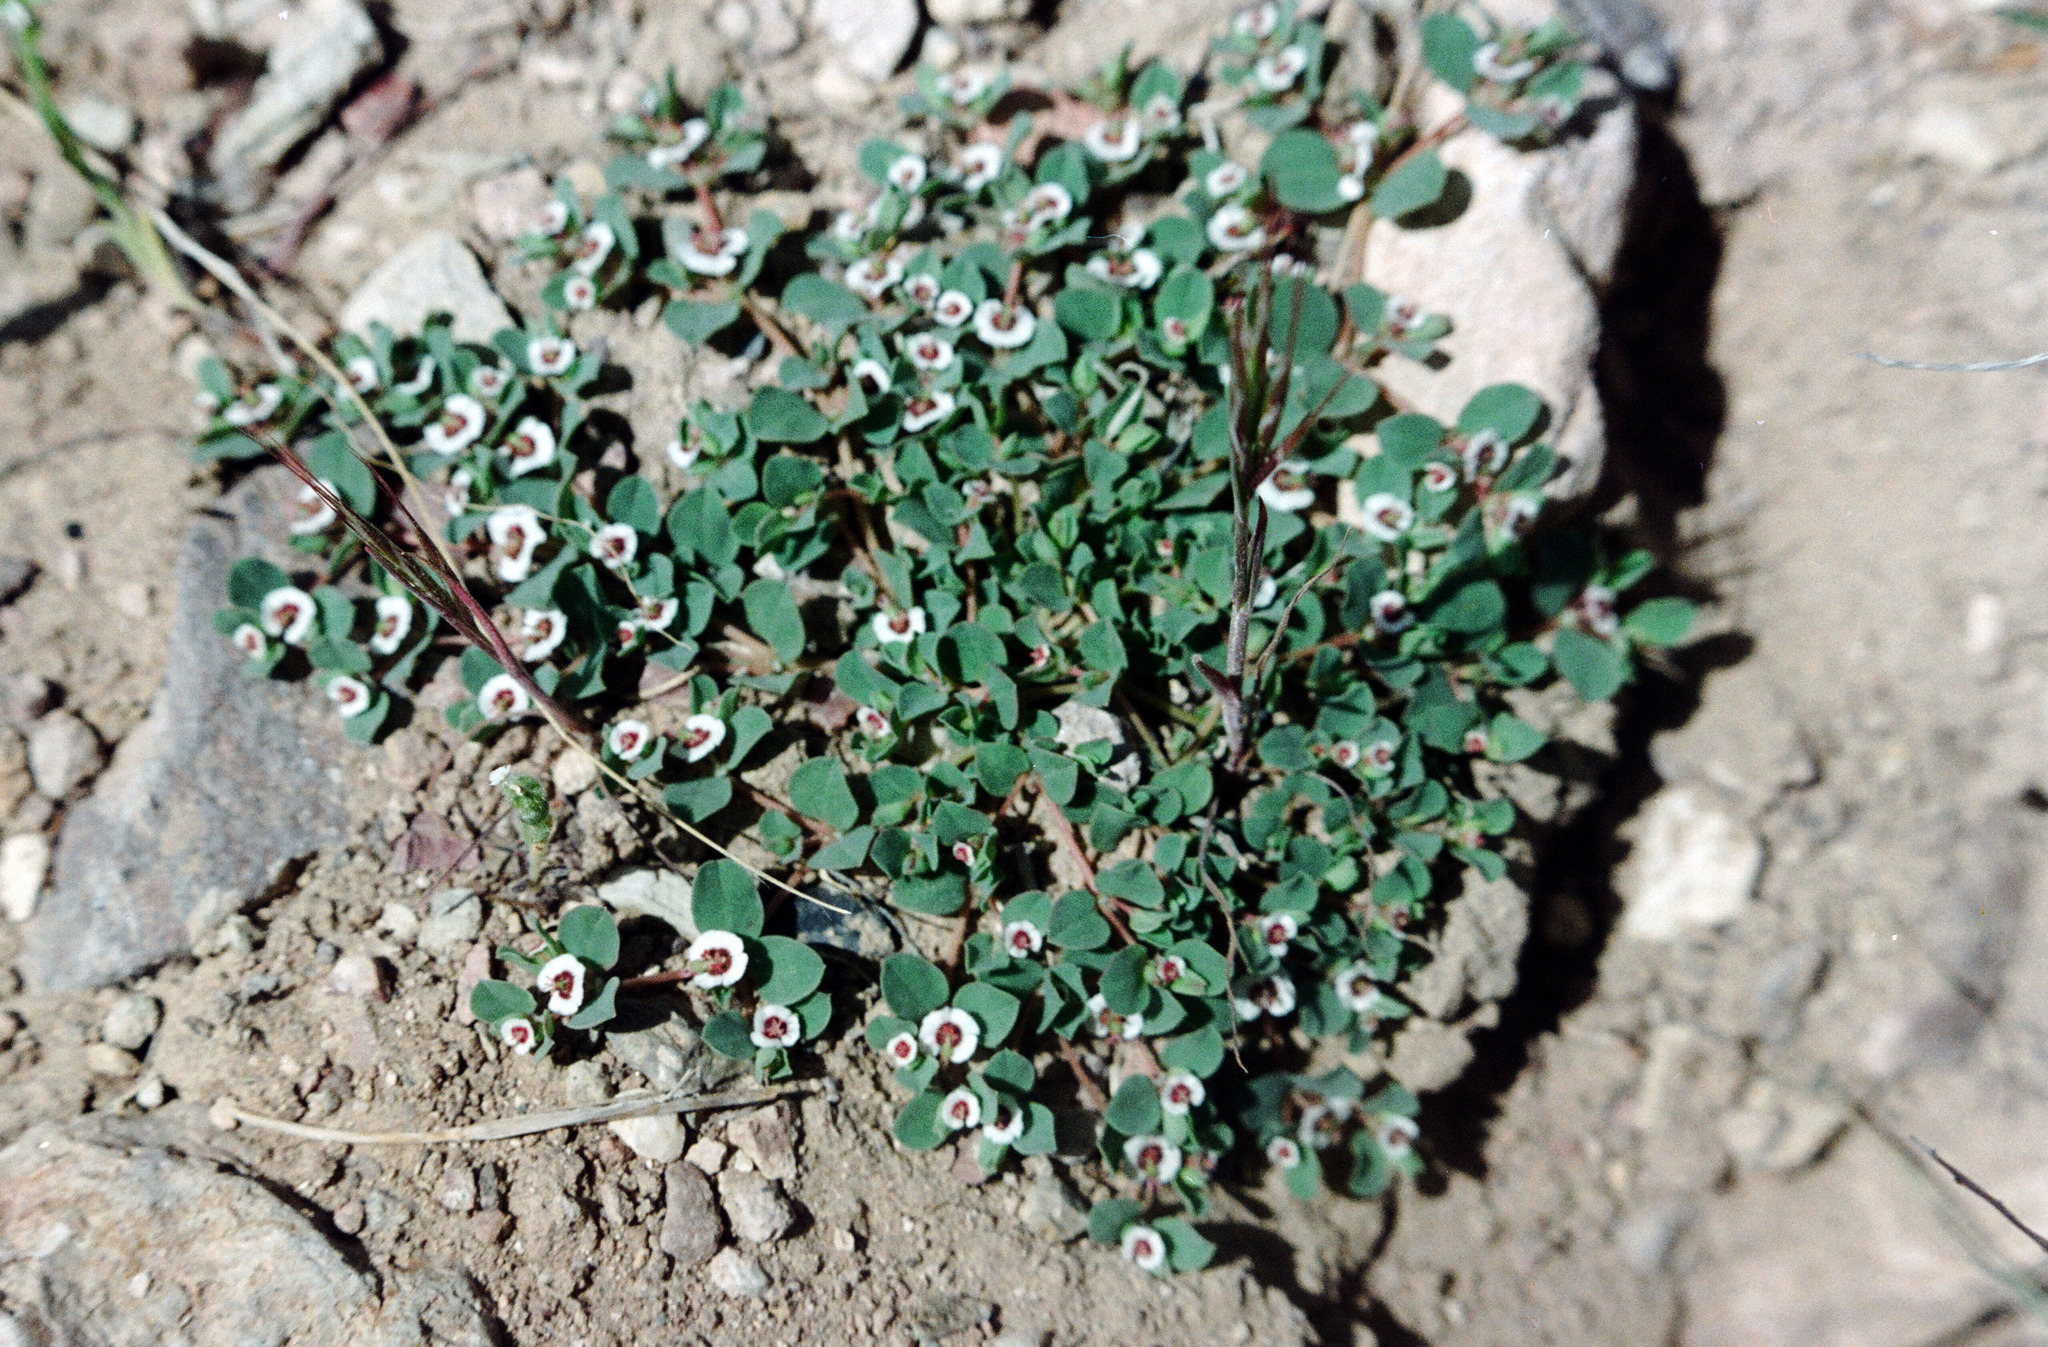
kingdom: Plantae
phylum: Tracheophyta
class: Magnoliopsida
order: Malpighiales
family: Euphorbiaceae
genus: Euphorbia
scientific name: Euphorbia albomarginata
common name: Whitemargin sandmat
